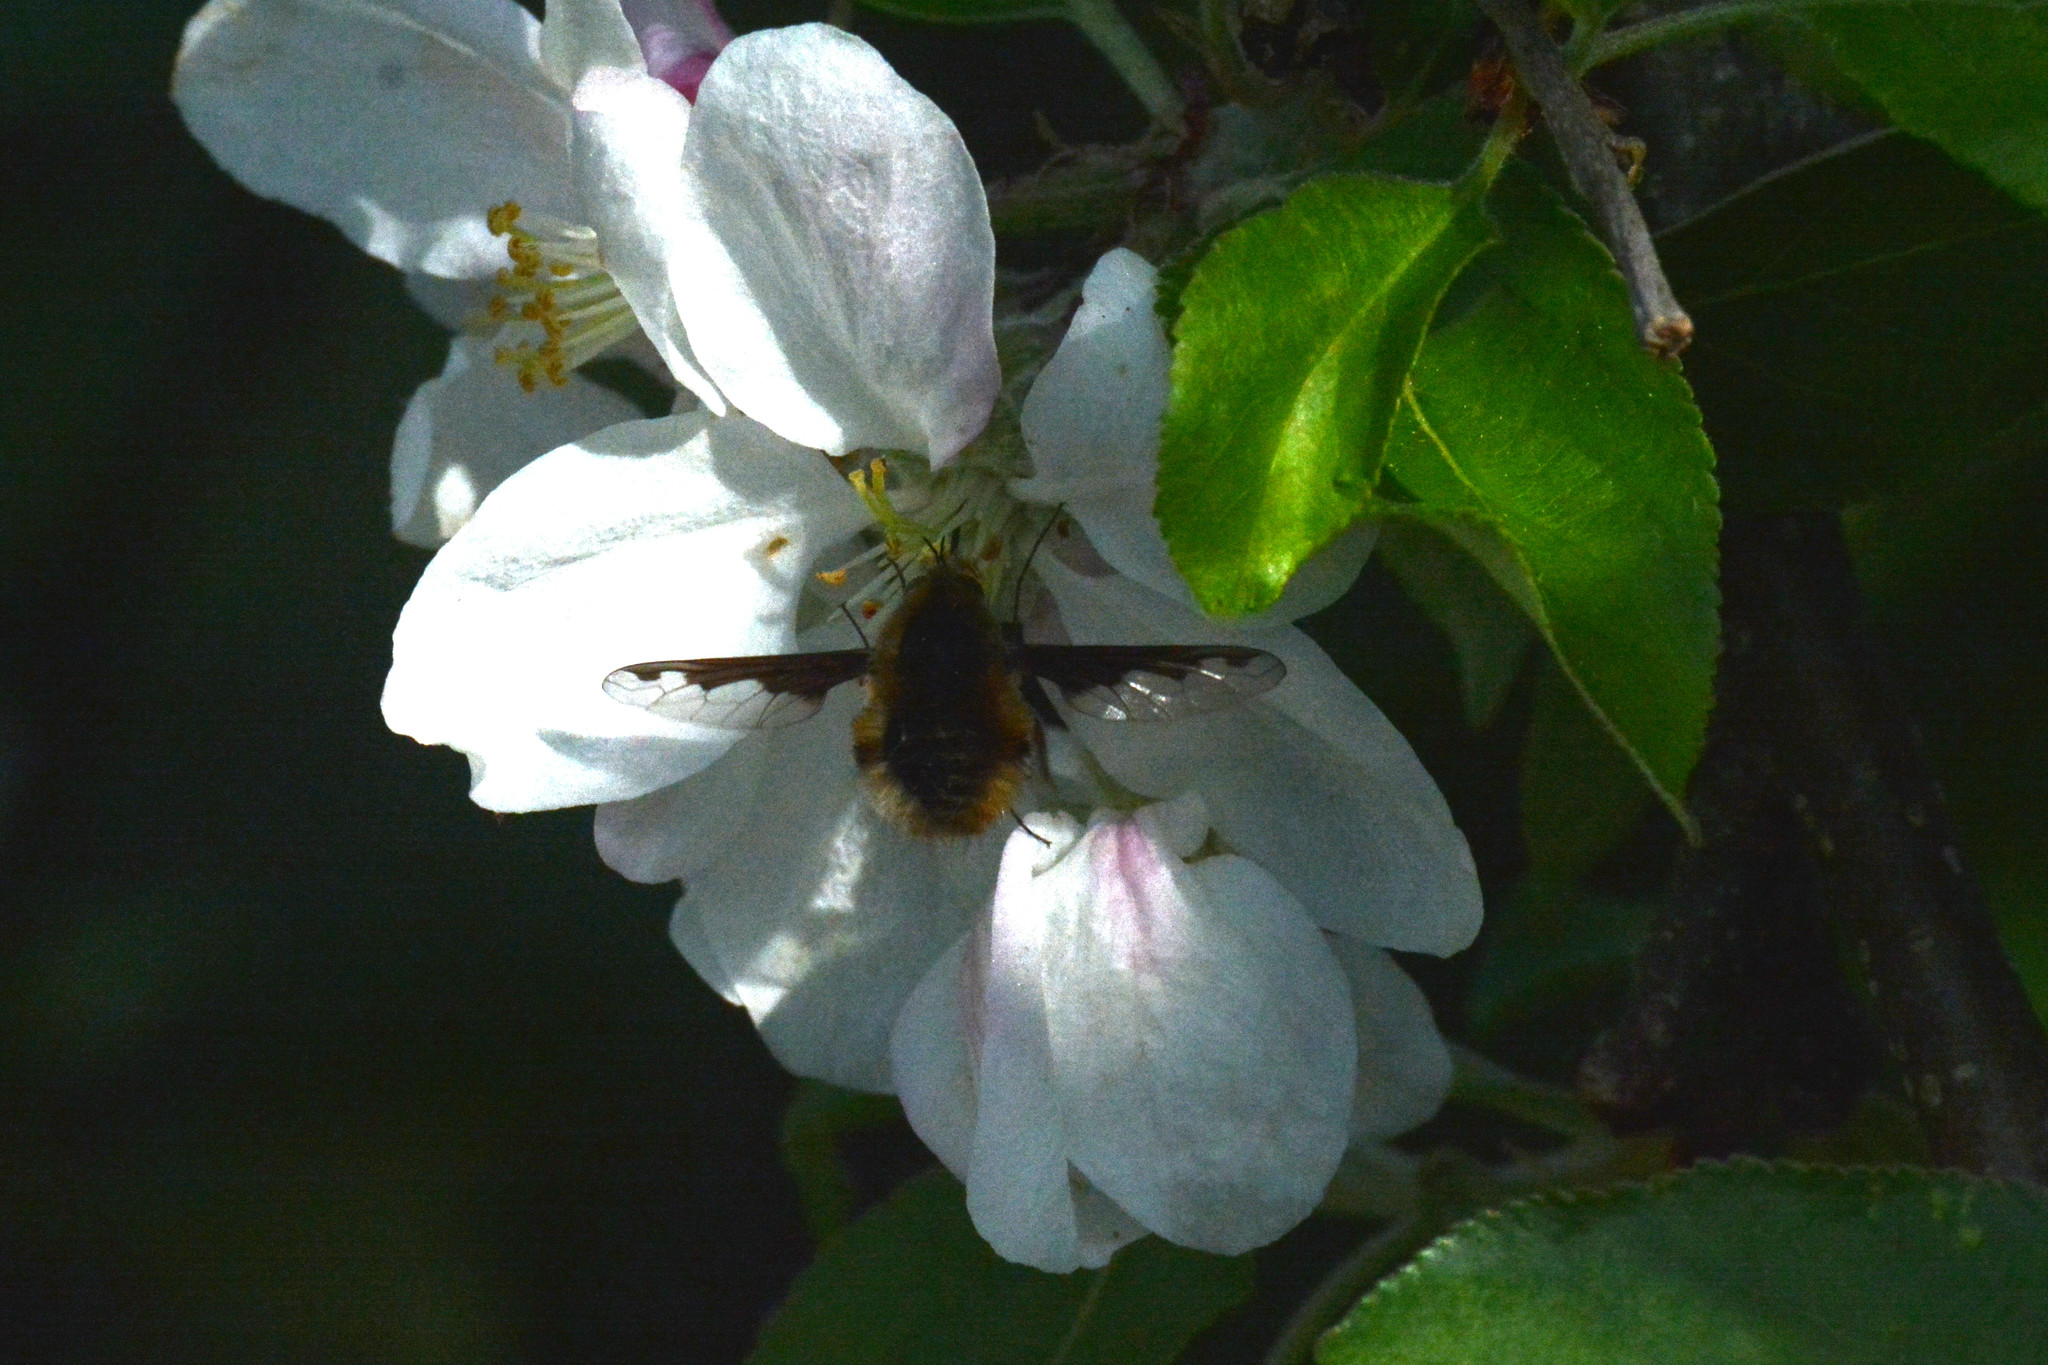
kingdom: Animalia
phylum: Arthropoda
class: Insecta
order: Diptera
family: Bombyliidae
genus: Bombylius
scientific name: Bombylius major
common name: Bee fly
